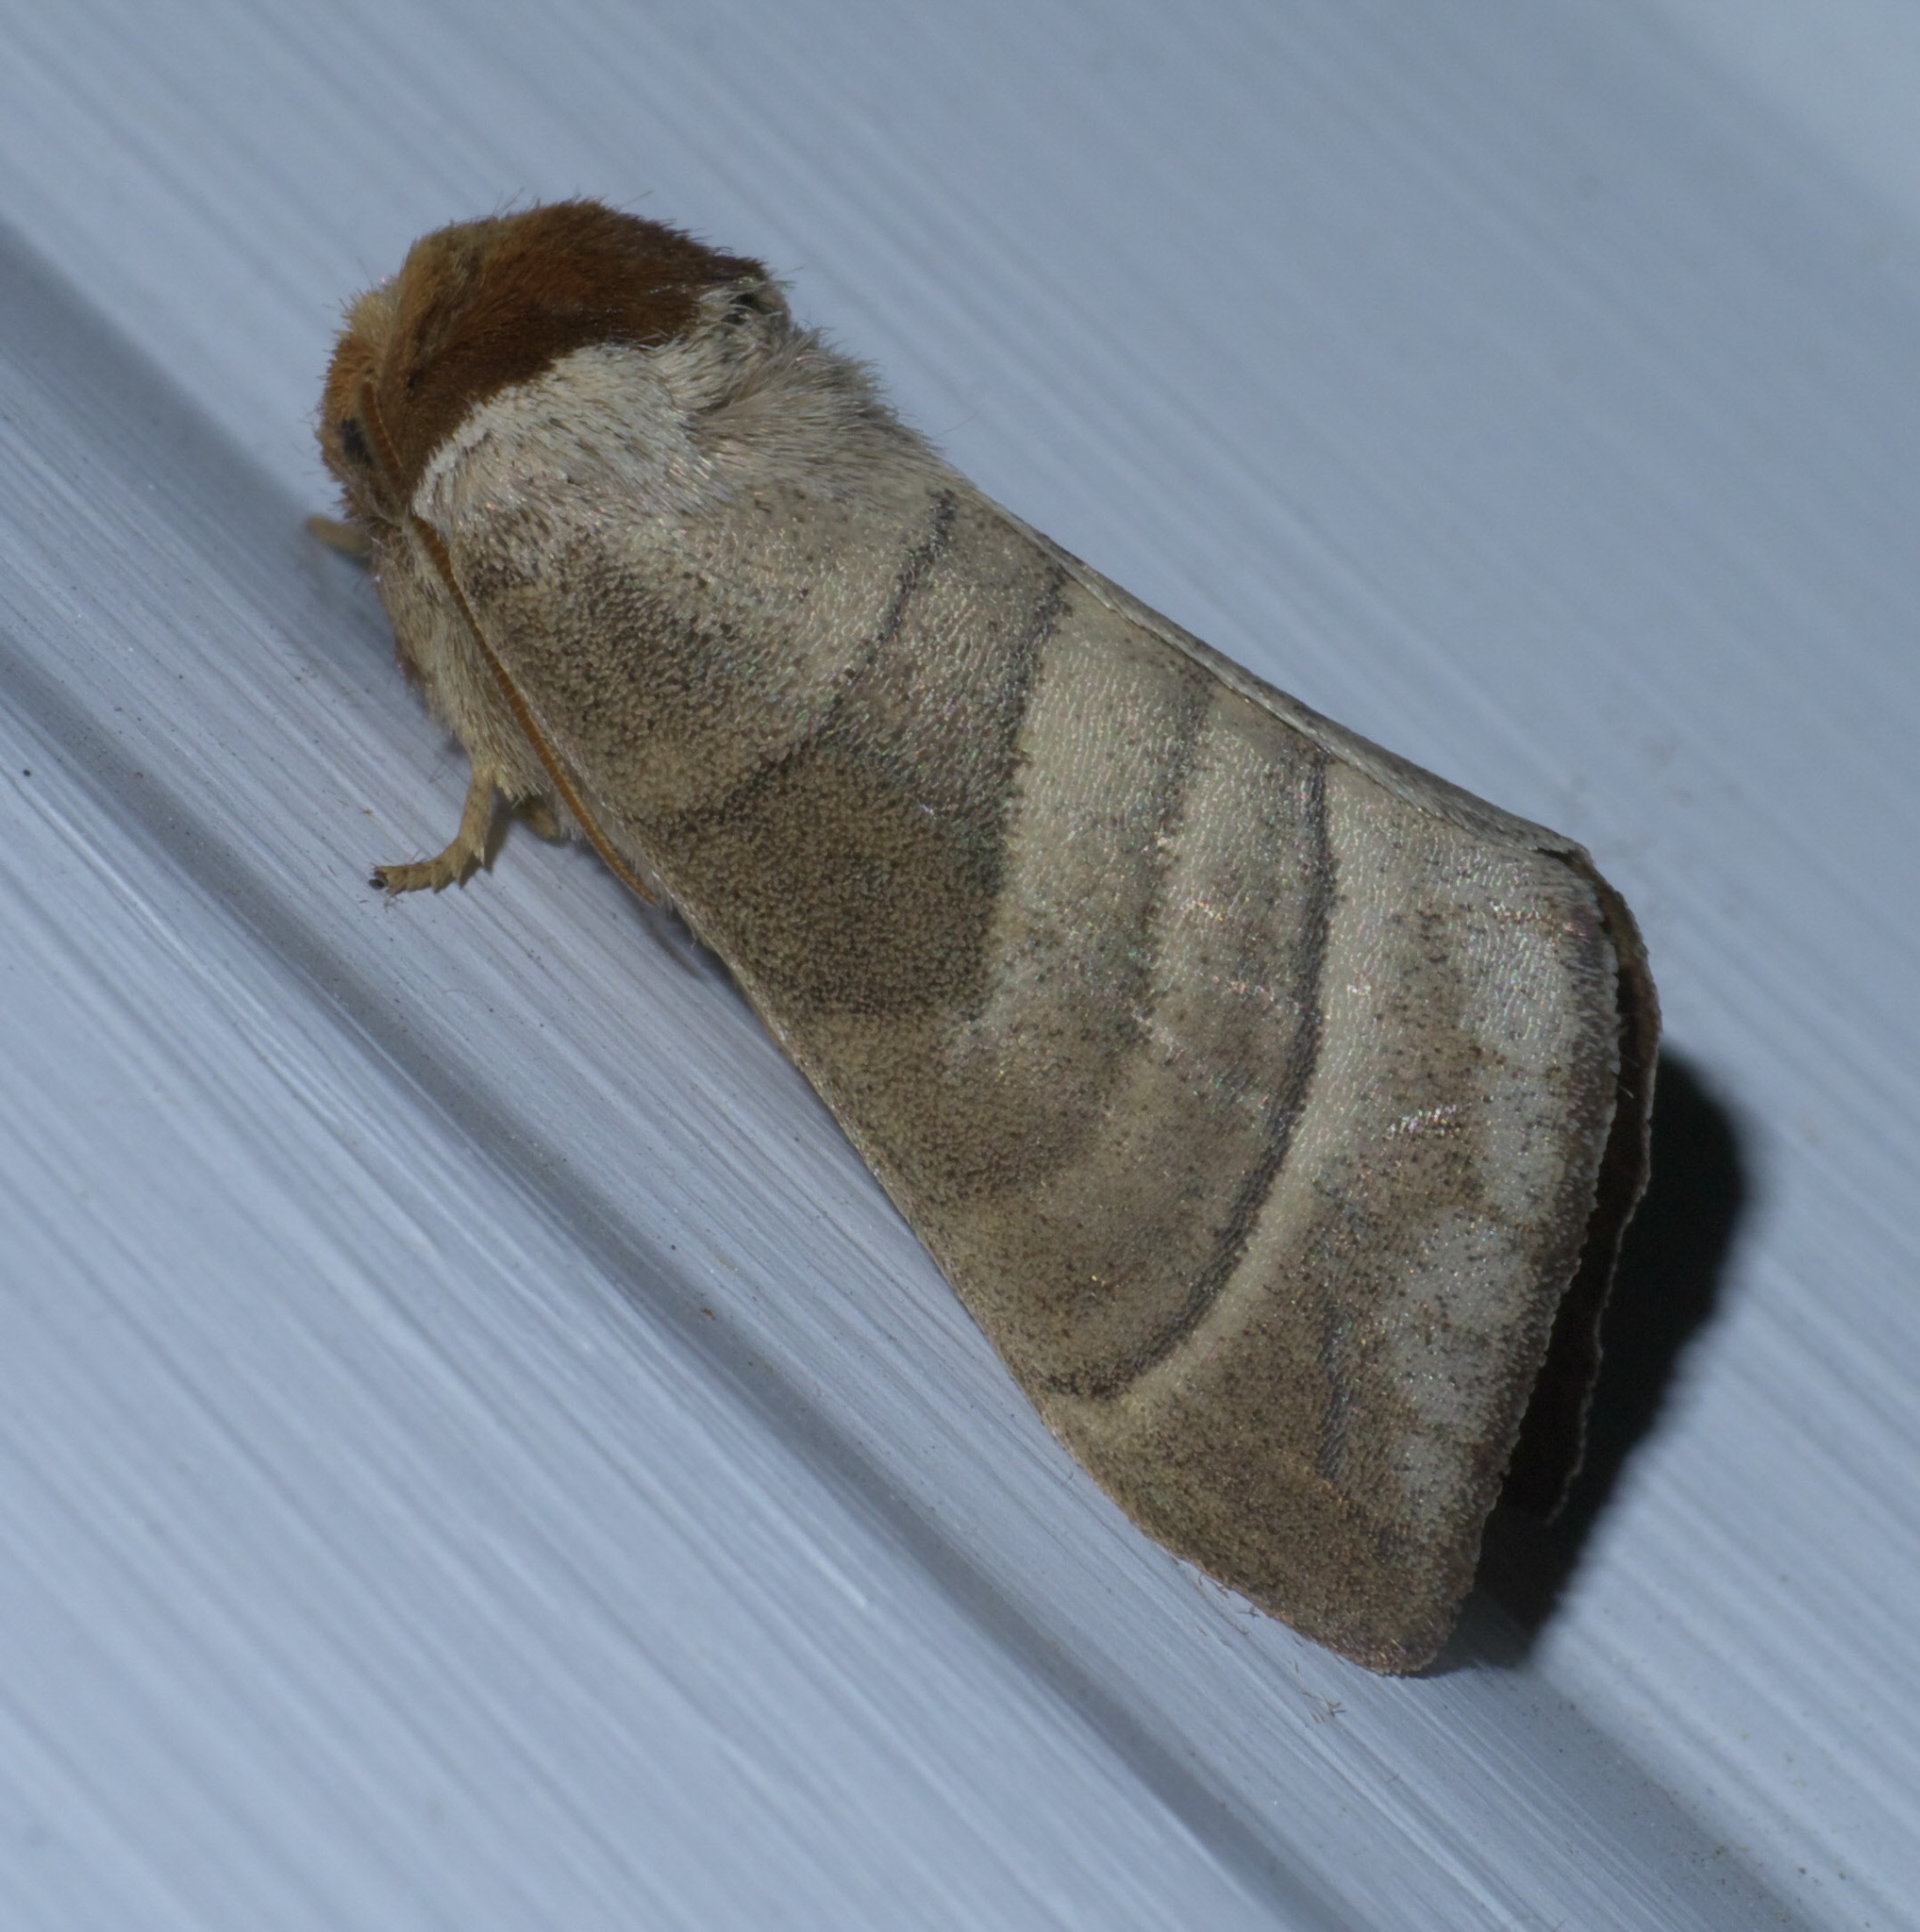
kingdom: Animalia
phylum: Arthropoda
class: Insecta
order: Lepidoptera
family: Notodontidae
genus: Datana
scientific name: Datana integerrima
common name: Walnut caterpillar
